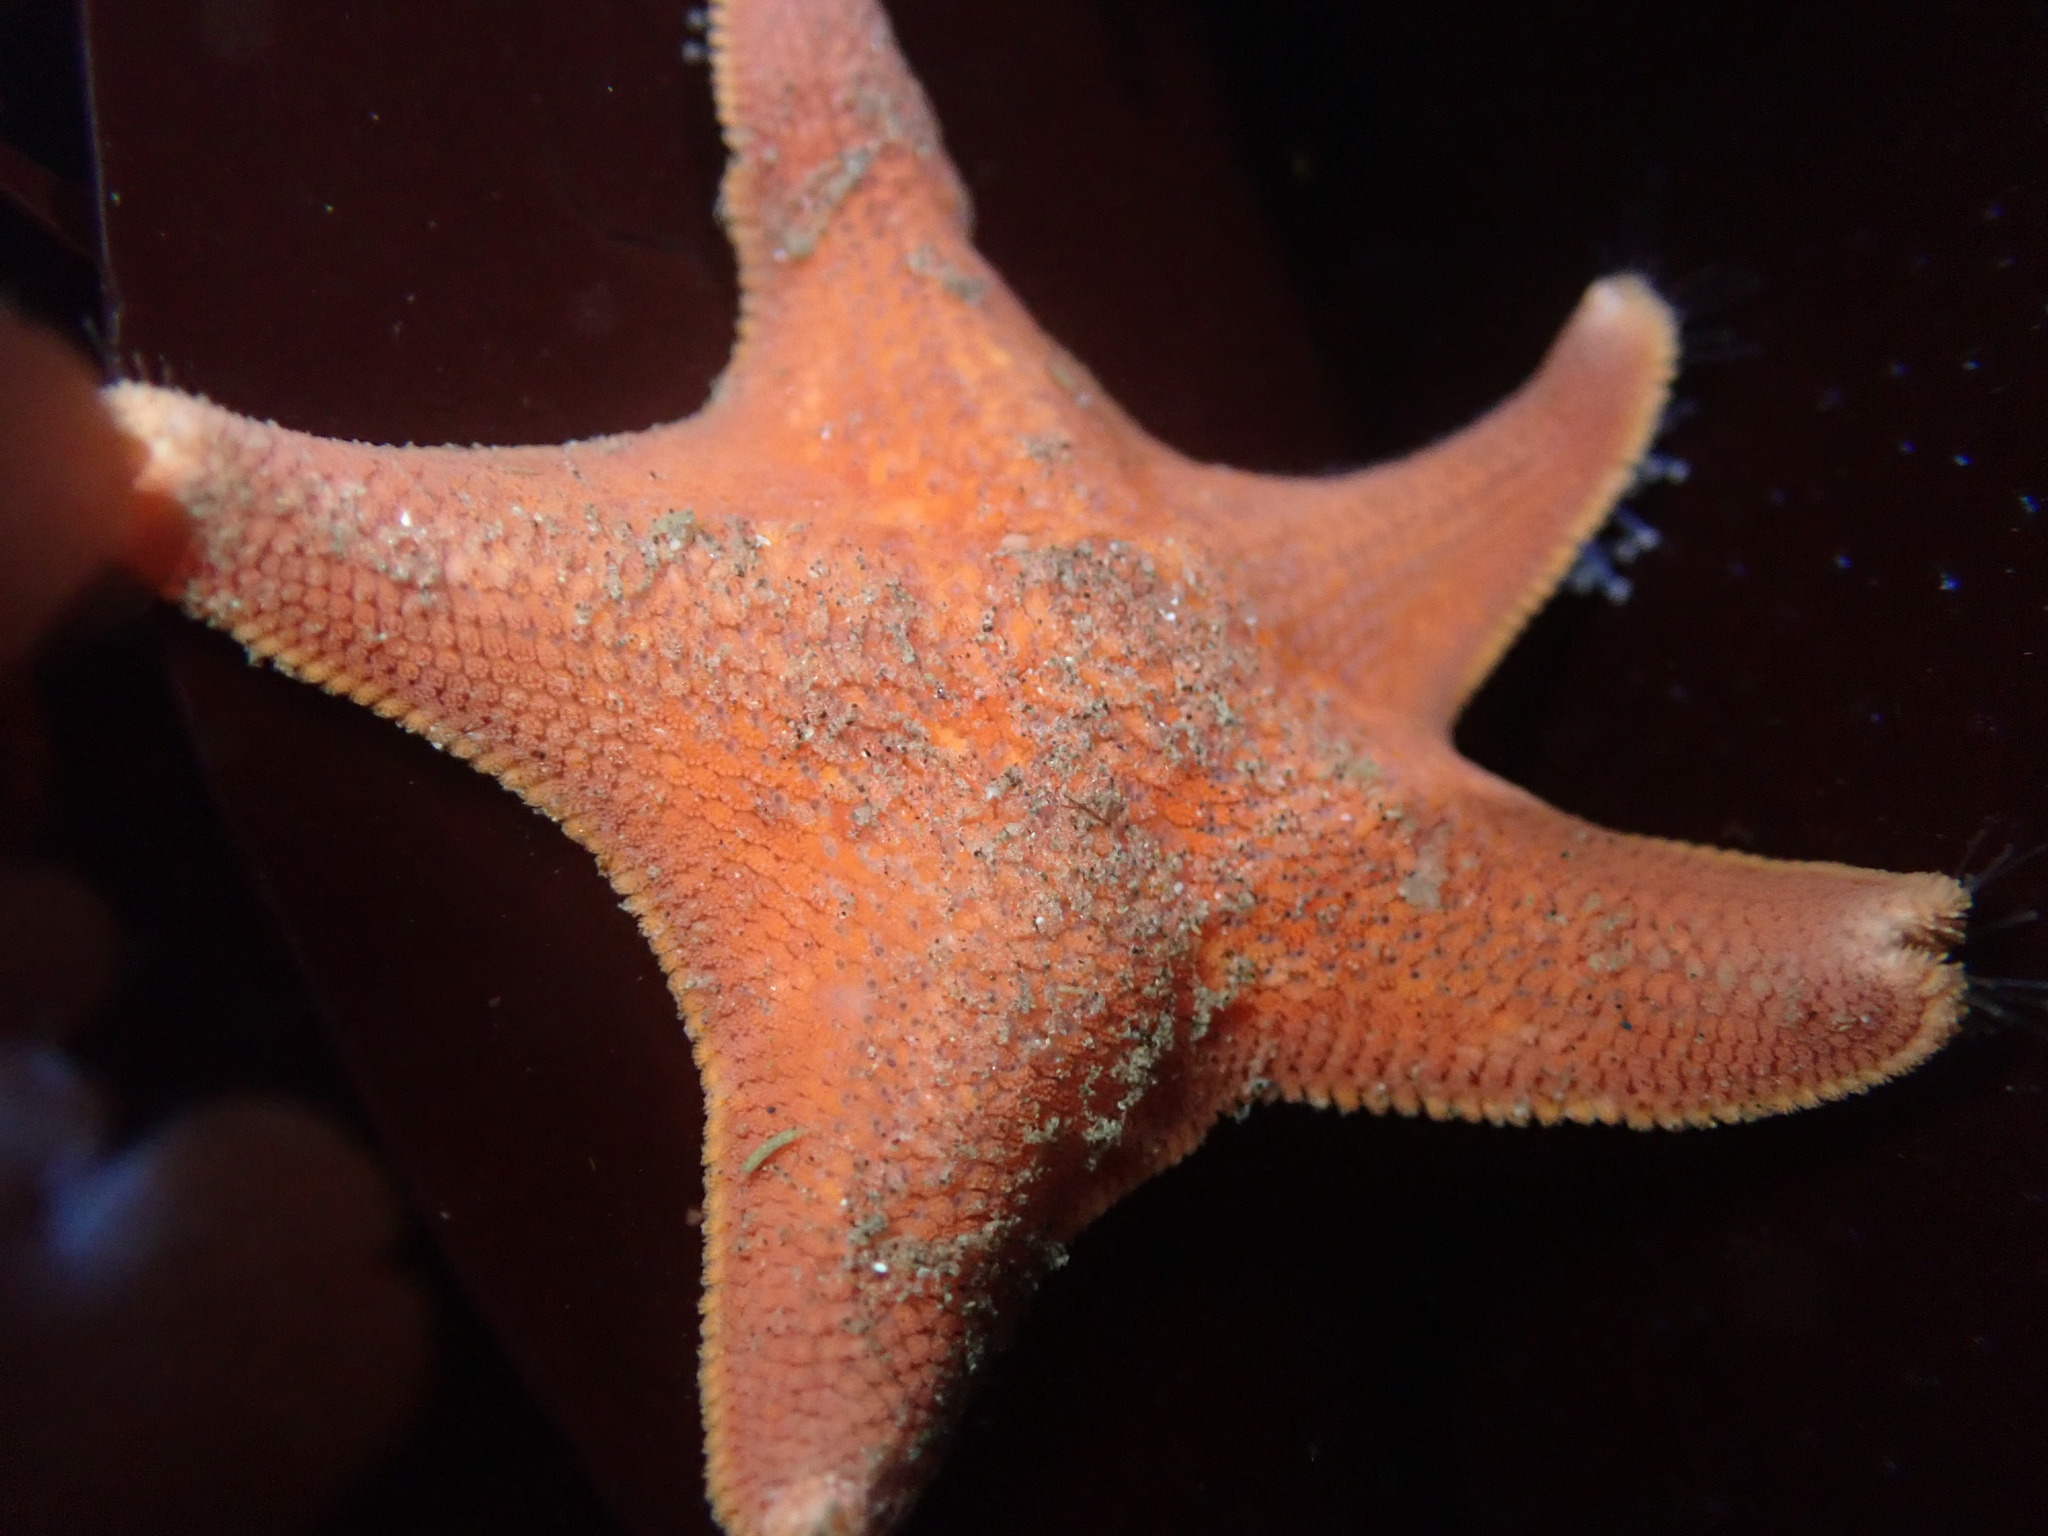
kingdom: Animalia
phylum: Echinodermata
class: Asteroidea
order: Valvatida
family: Asterinidae
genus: Patiria
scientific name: Patiria miniata
